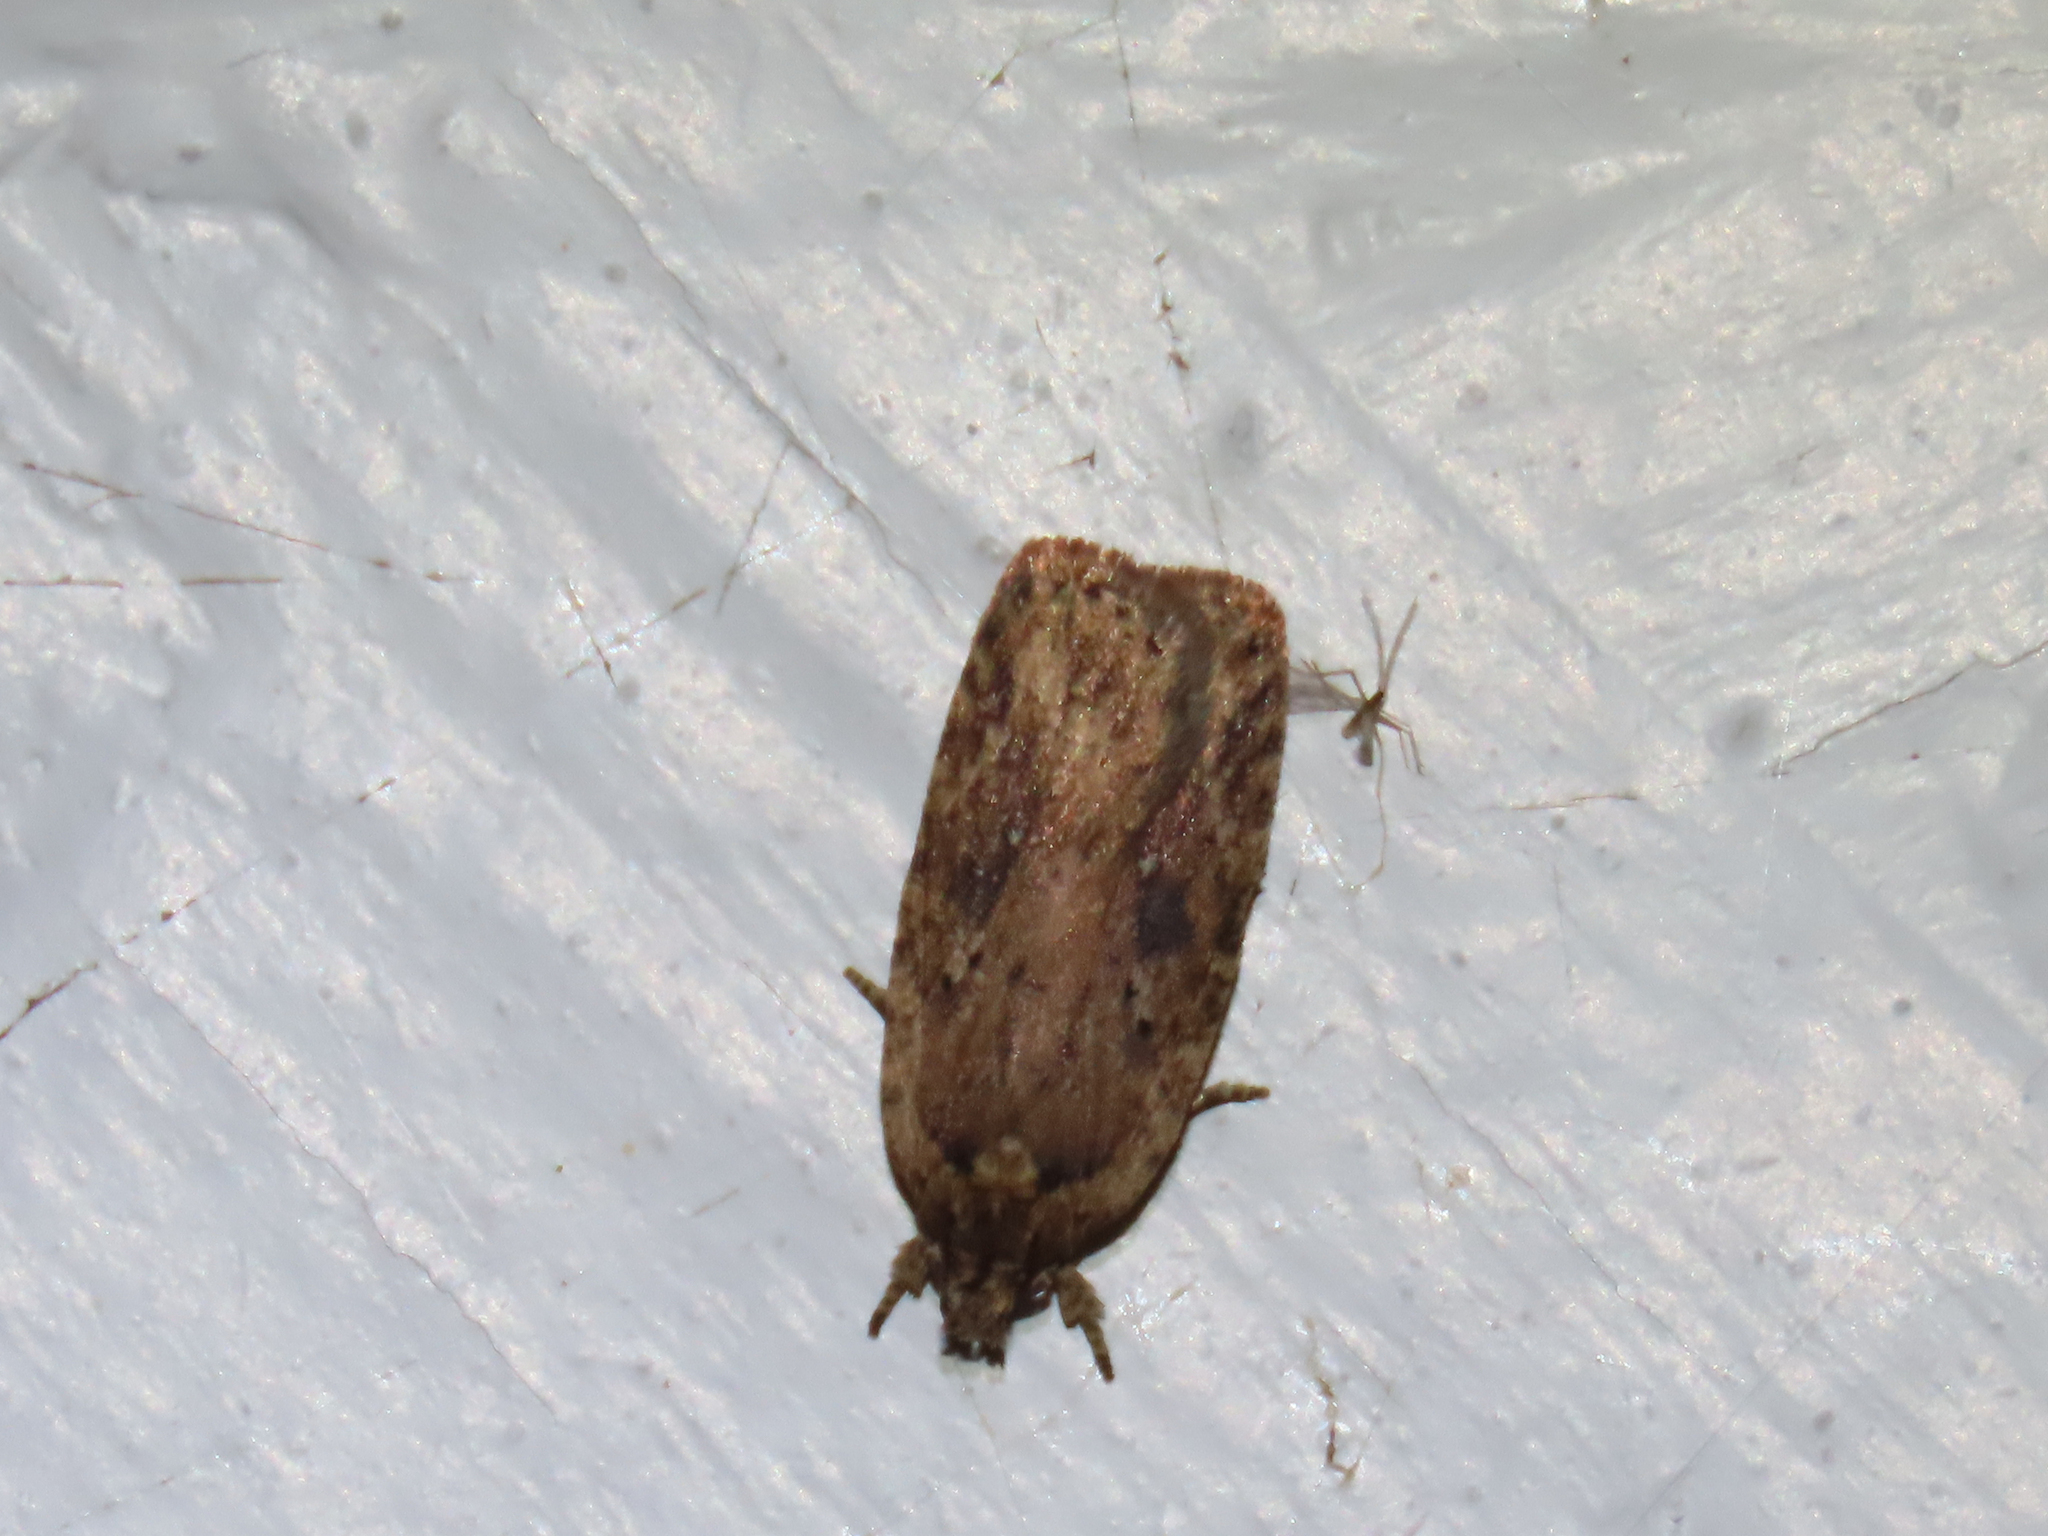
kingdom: Animalia
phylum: Arthropoda
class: Insecta
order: Lepidoptera
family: Depressariidae
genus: Agonopterix
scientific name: Agonopterix pulvipennella
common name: Goldenrod leafffolder
